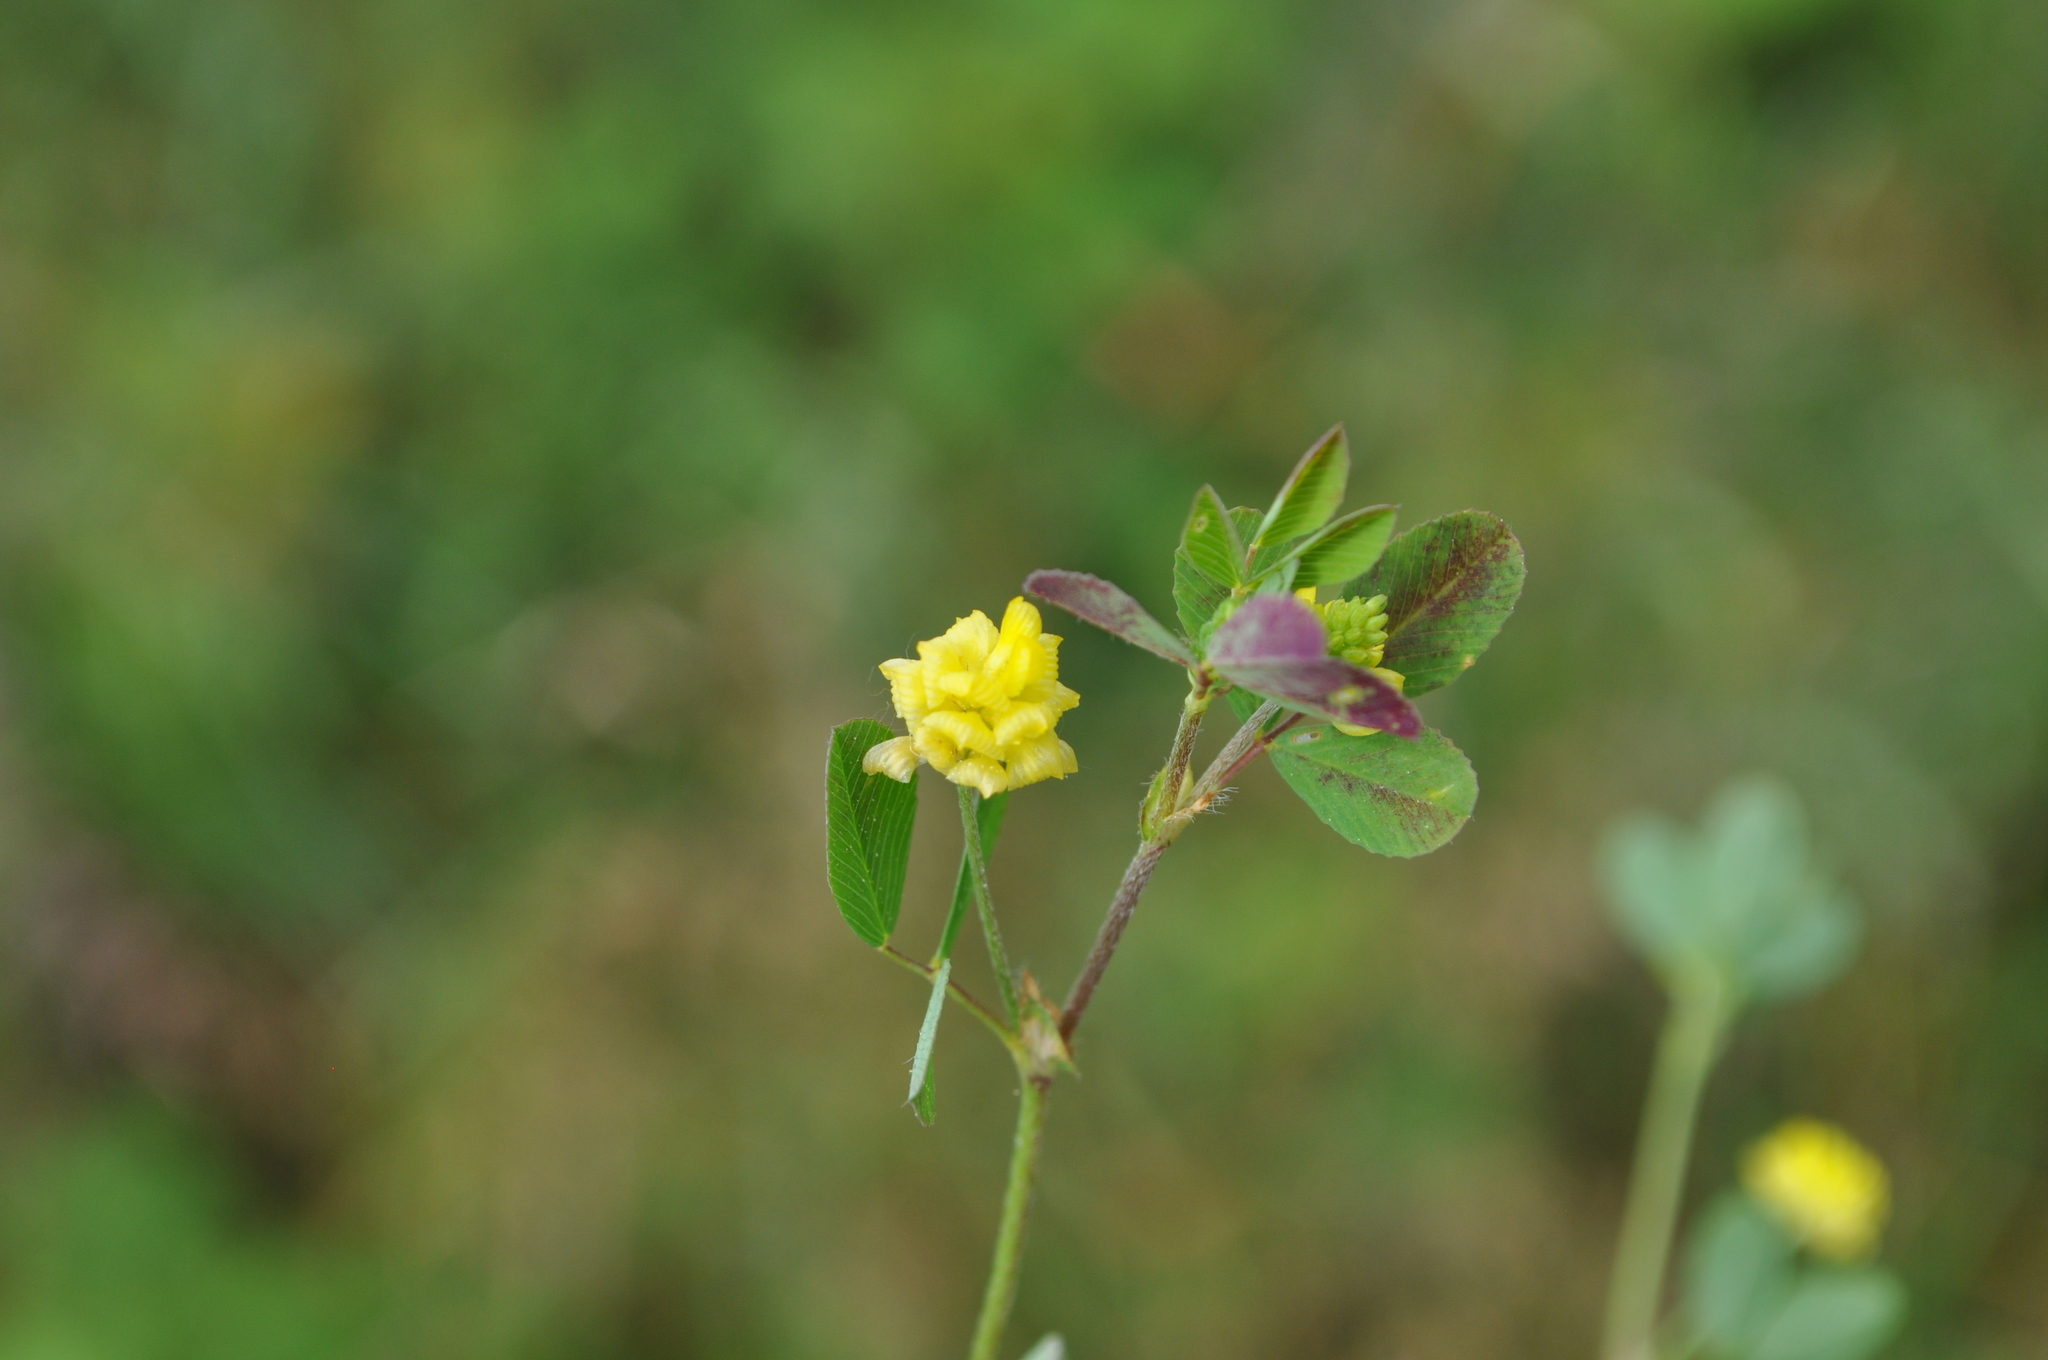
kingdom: Plantae
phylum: Tracheophyta
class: Magnoliopsida
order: Fabales
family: Fabaceae
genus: Trifolium
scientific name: Trifolium campestre
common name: Field clover
